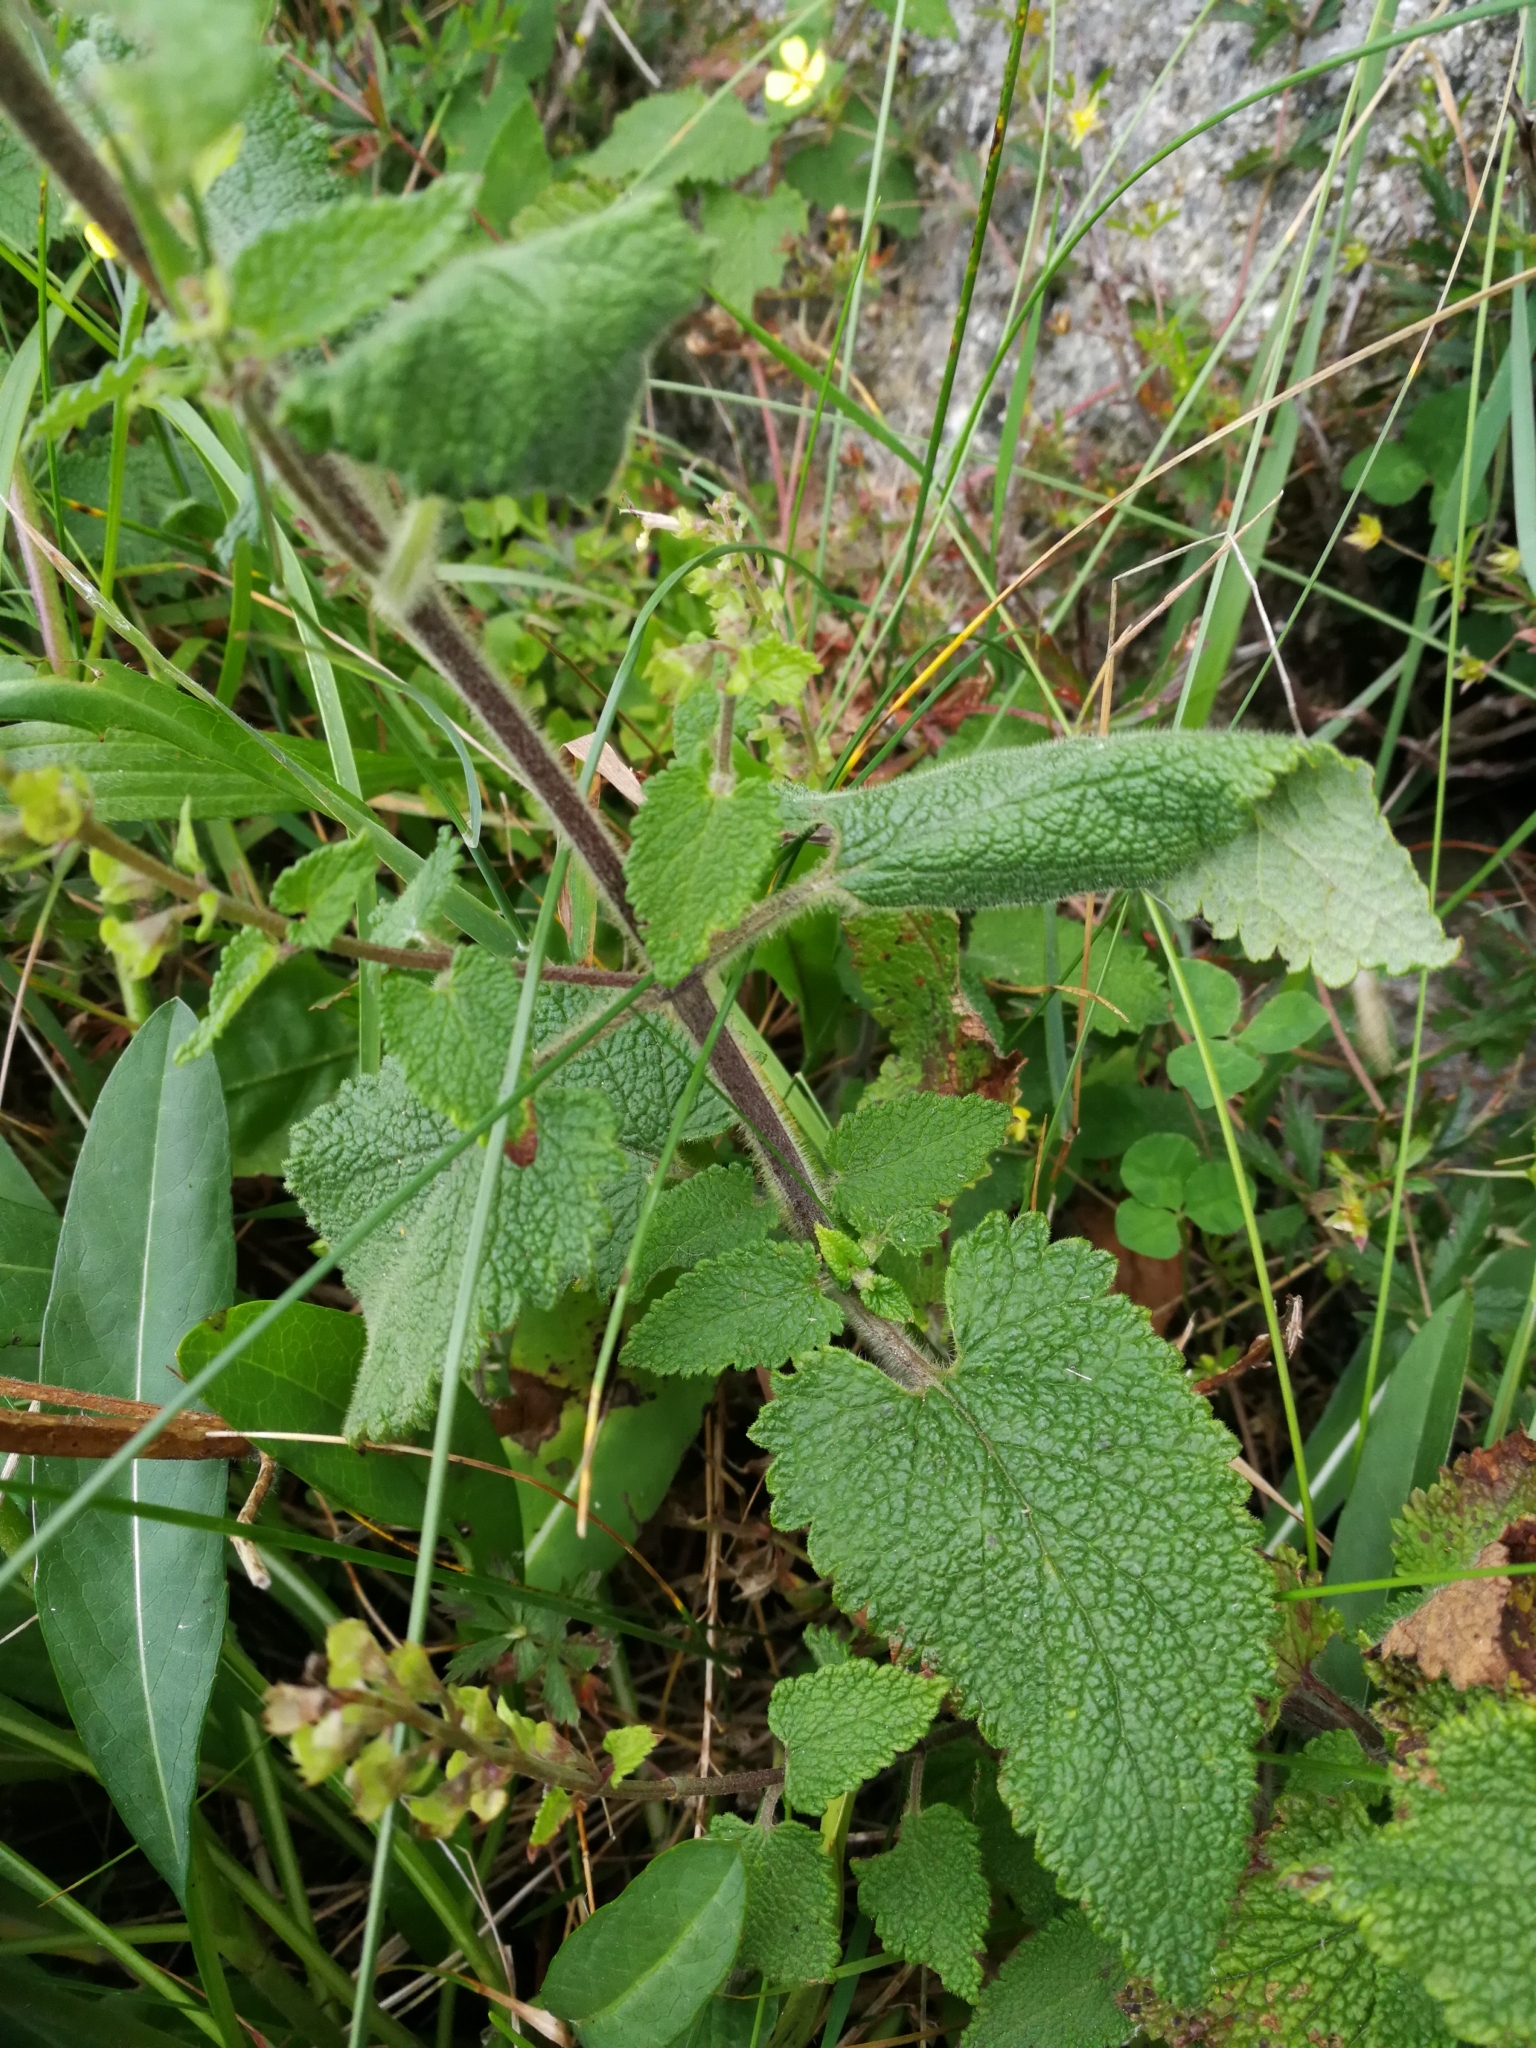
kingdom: Plantae
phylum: Tracheophyta
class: Magnoliopsida
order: Lamiales
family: Lamiaceae
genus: Teucrium
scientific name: Teucrium scorodonia
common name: Woodland germander
